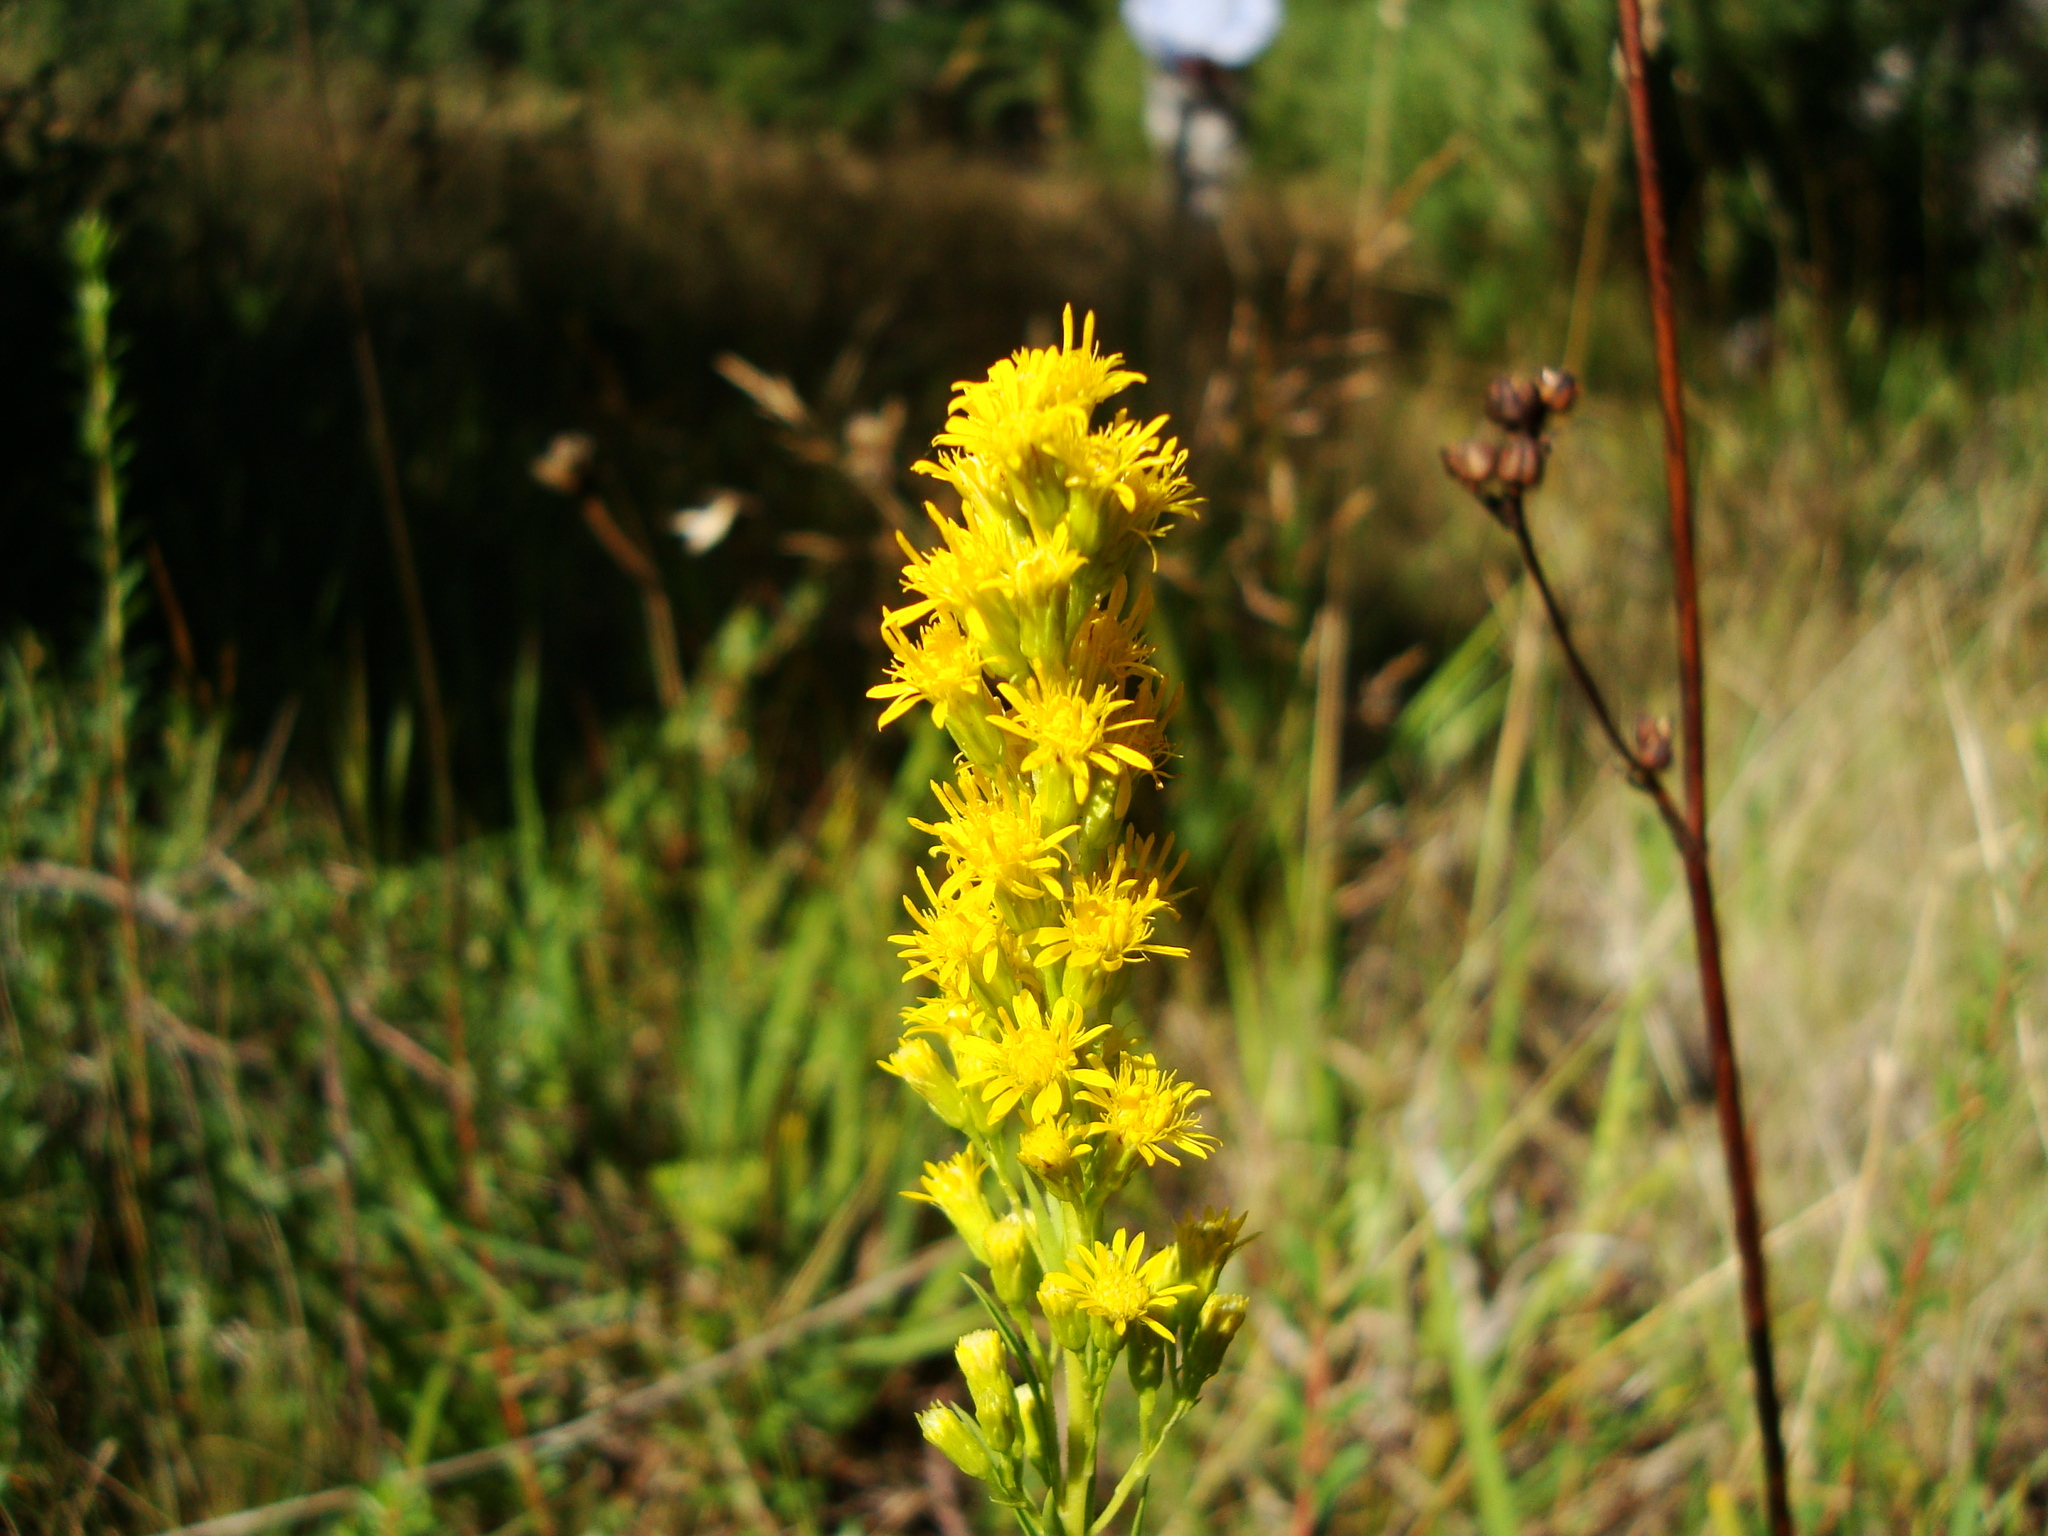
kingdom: Plantae
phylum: Tracheophyta
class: Magnoliopsida
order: Asterales
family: Asteraceae
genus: Solidago
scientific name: Solidago chilensis
